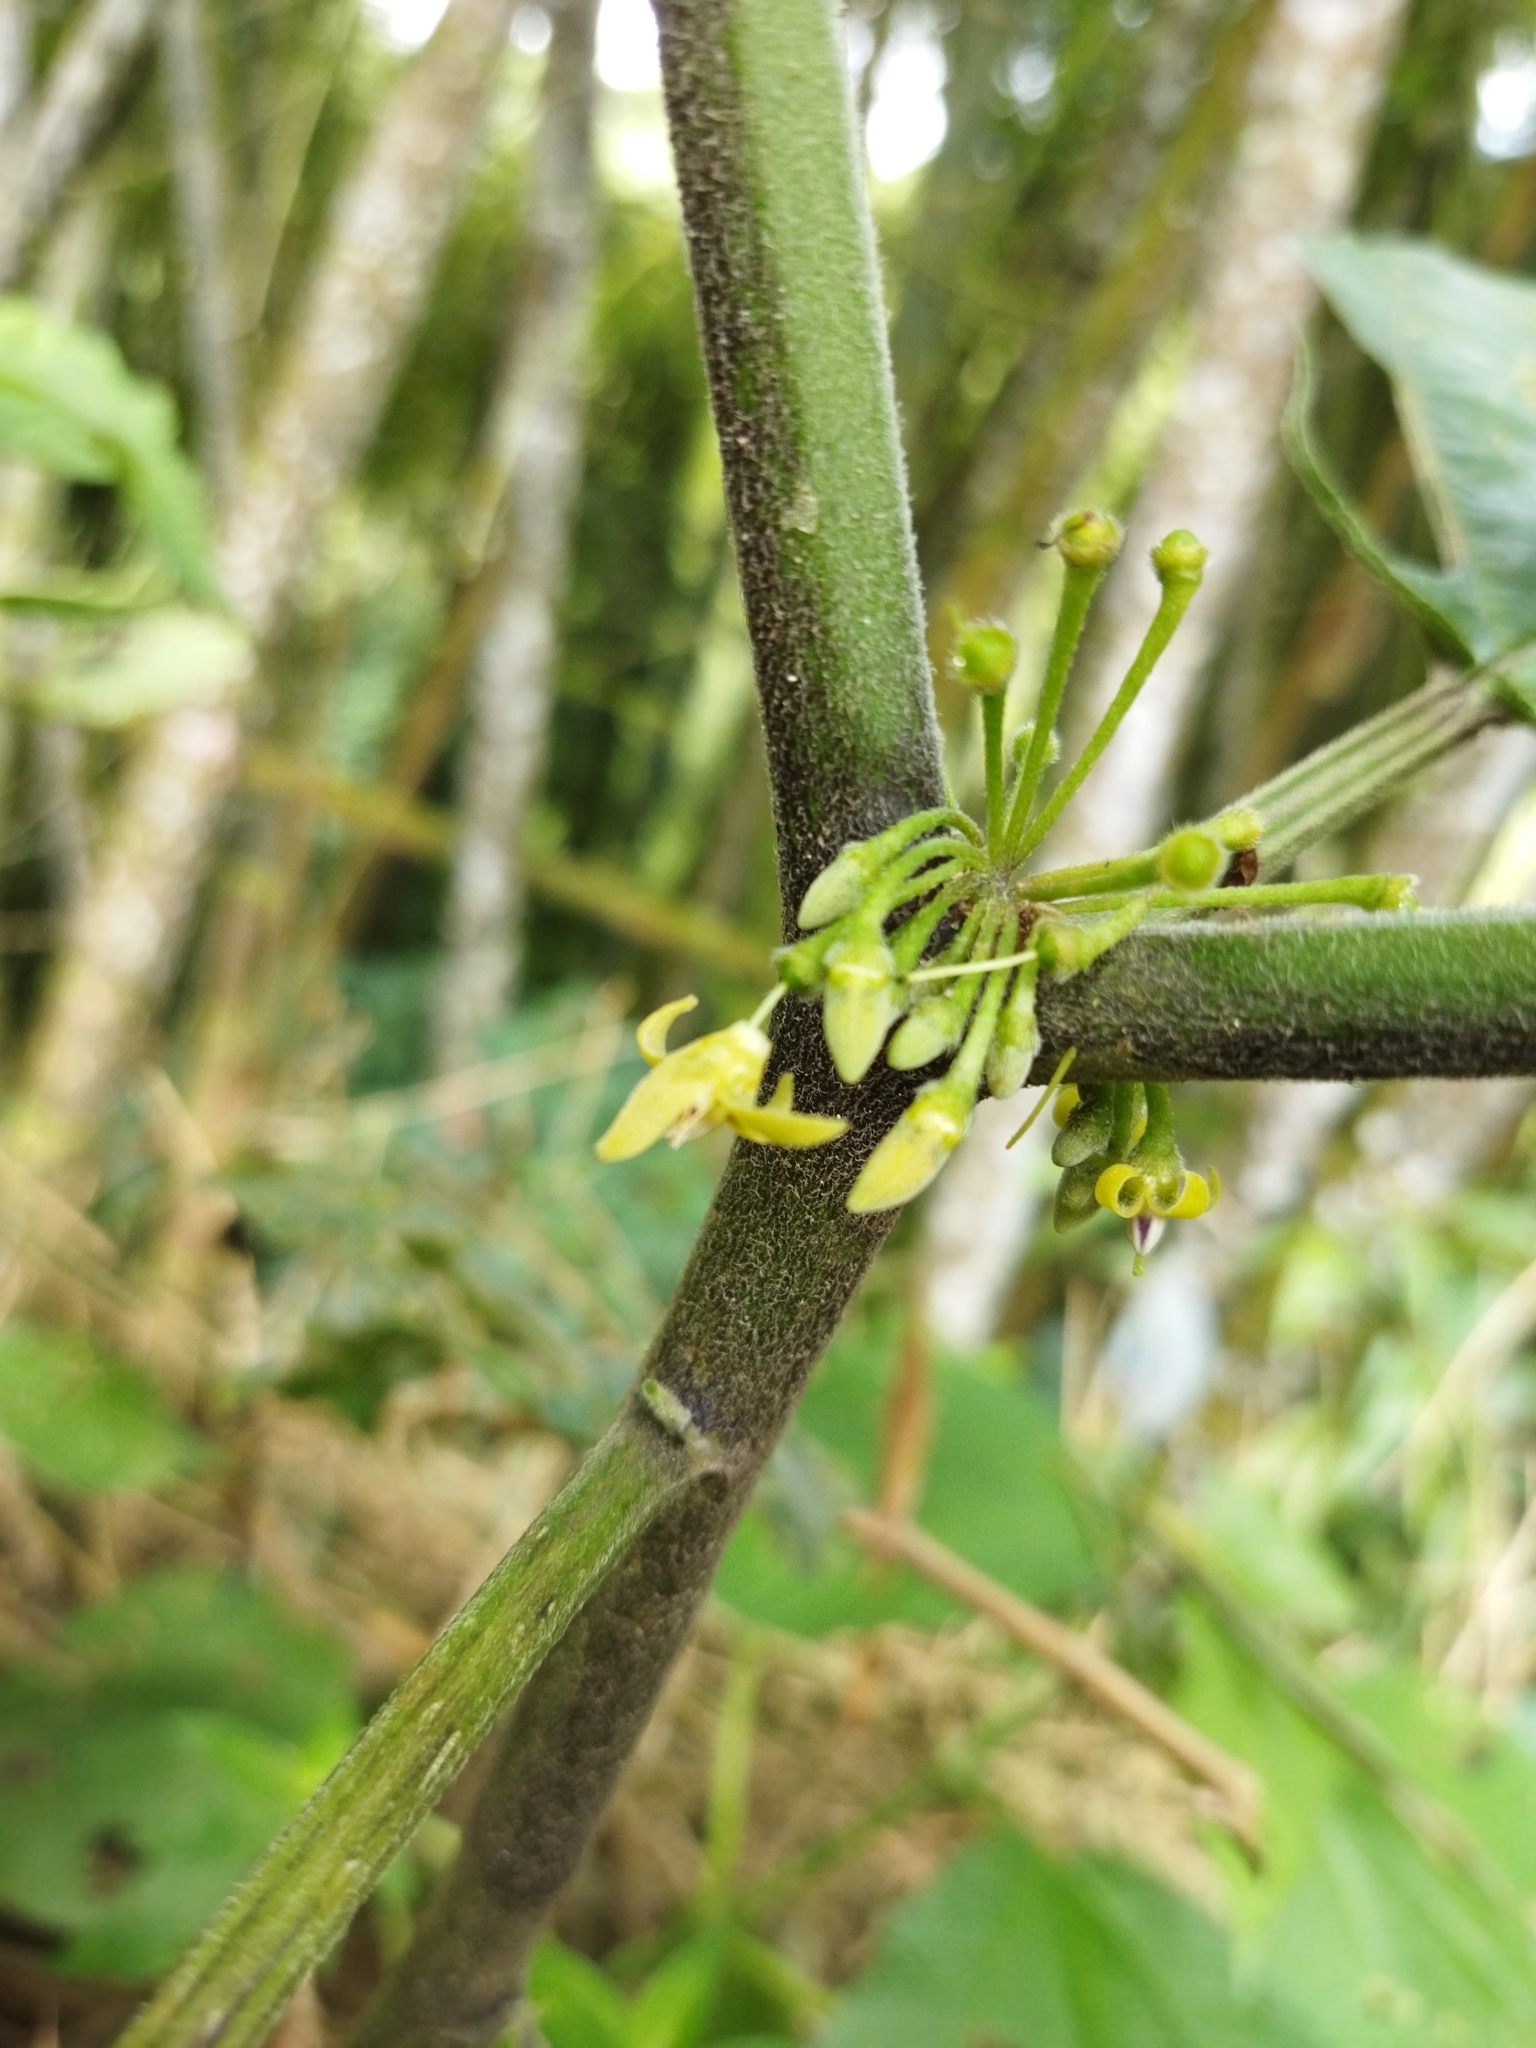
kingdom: Plantae
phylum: Tracheophyta
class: Magnoliopsida
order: Solanales
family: Solanaceae
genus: Witheringia
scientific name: Witheringia solanacea
